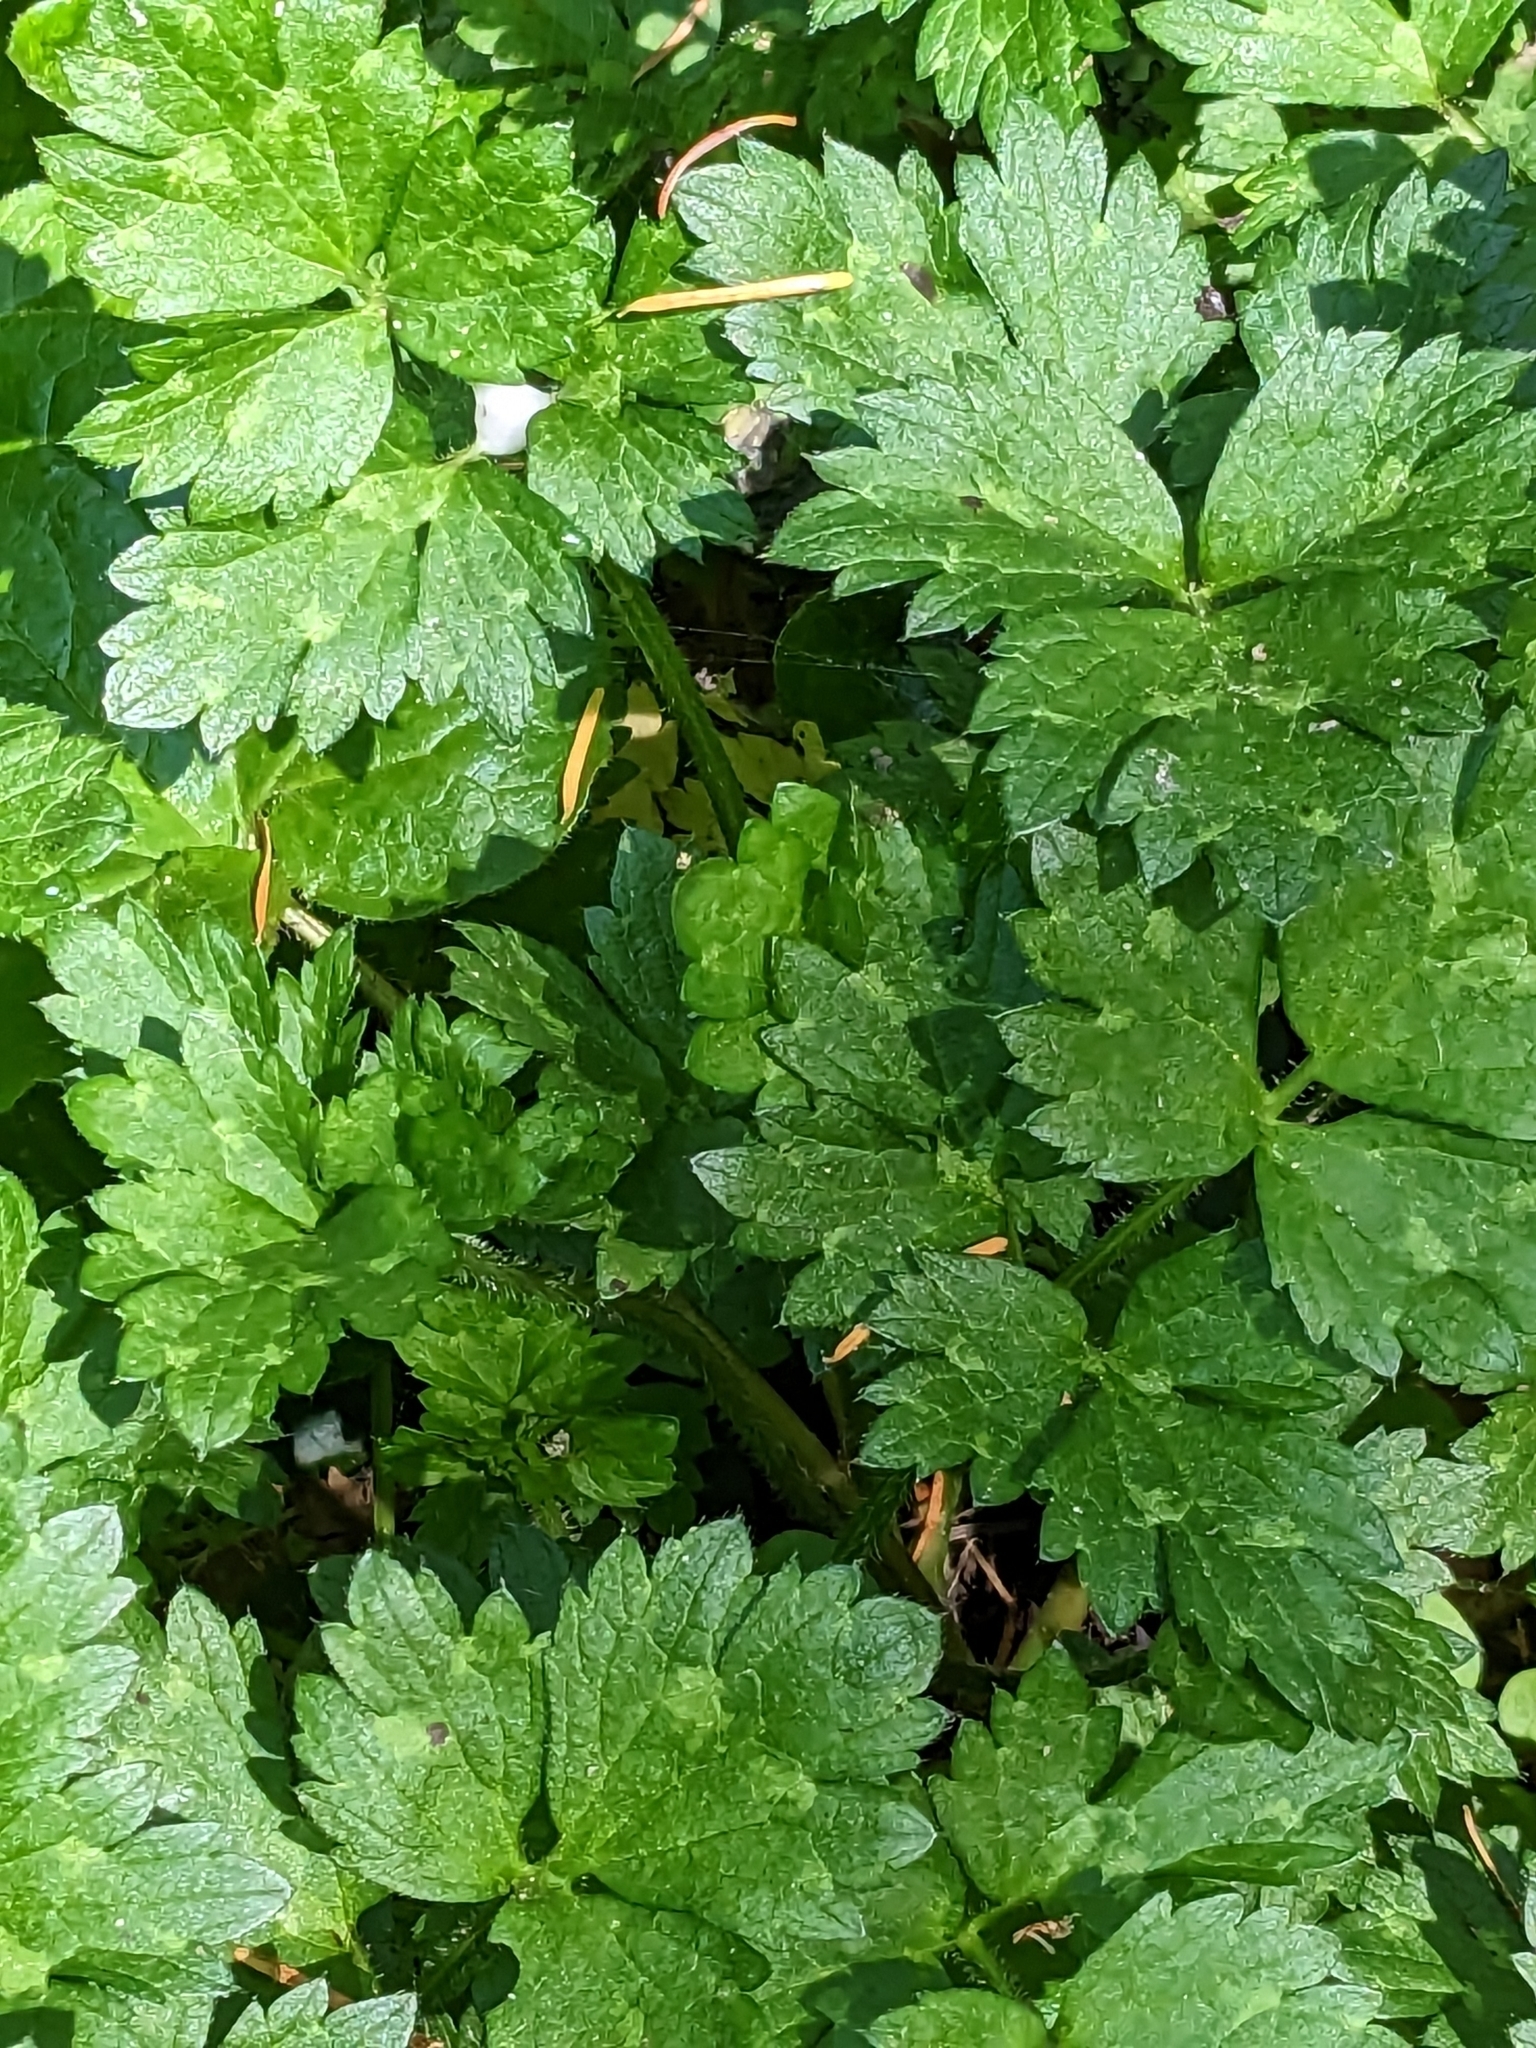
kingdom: Plantae
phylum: Tracheophyta
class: Magnoliopsida
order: Ranunculales
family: Ranunculaceae
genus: Ranunculus
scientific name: Ranunculus repens
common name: Creeping buttercup
